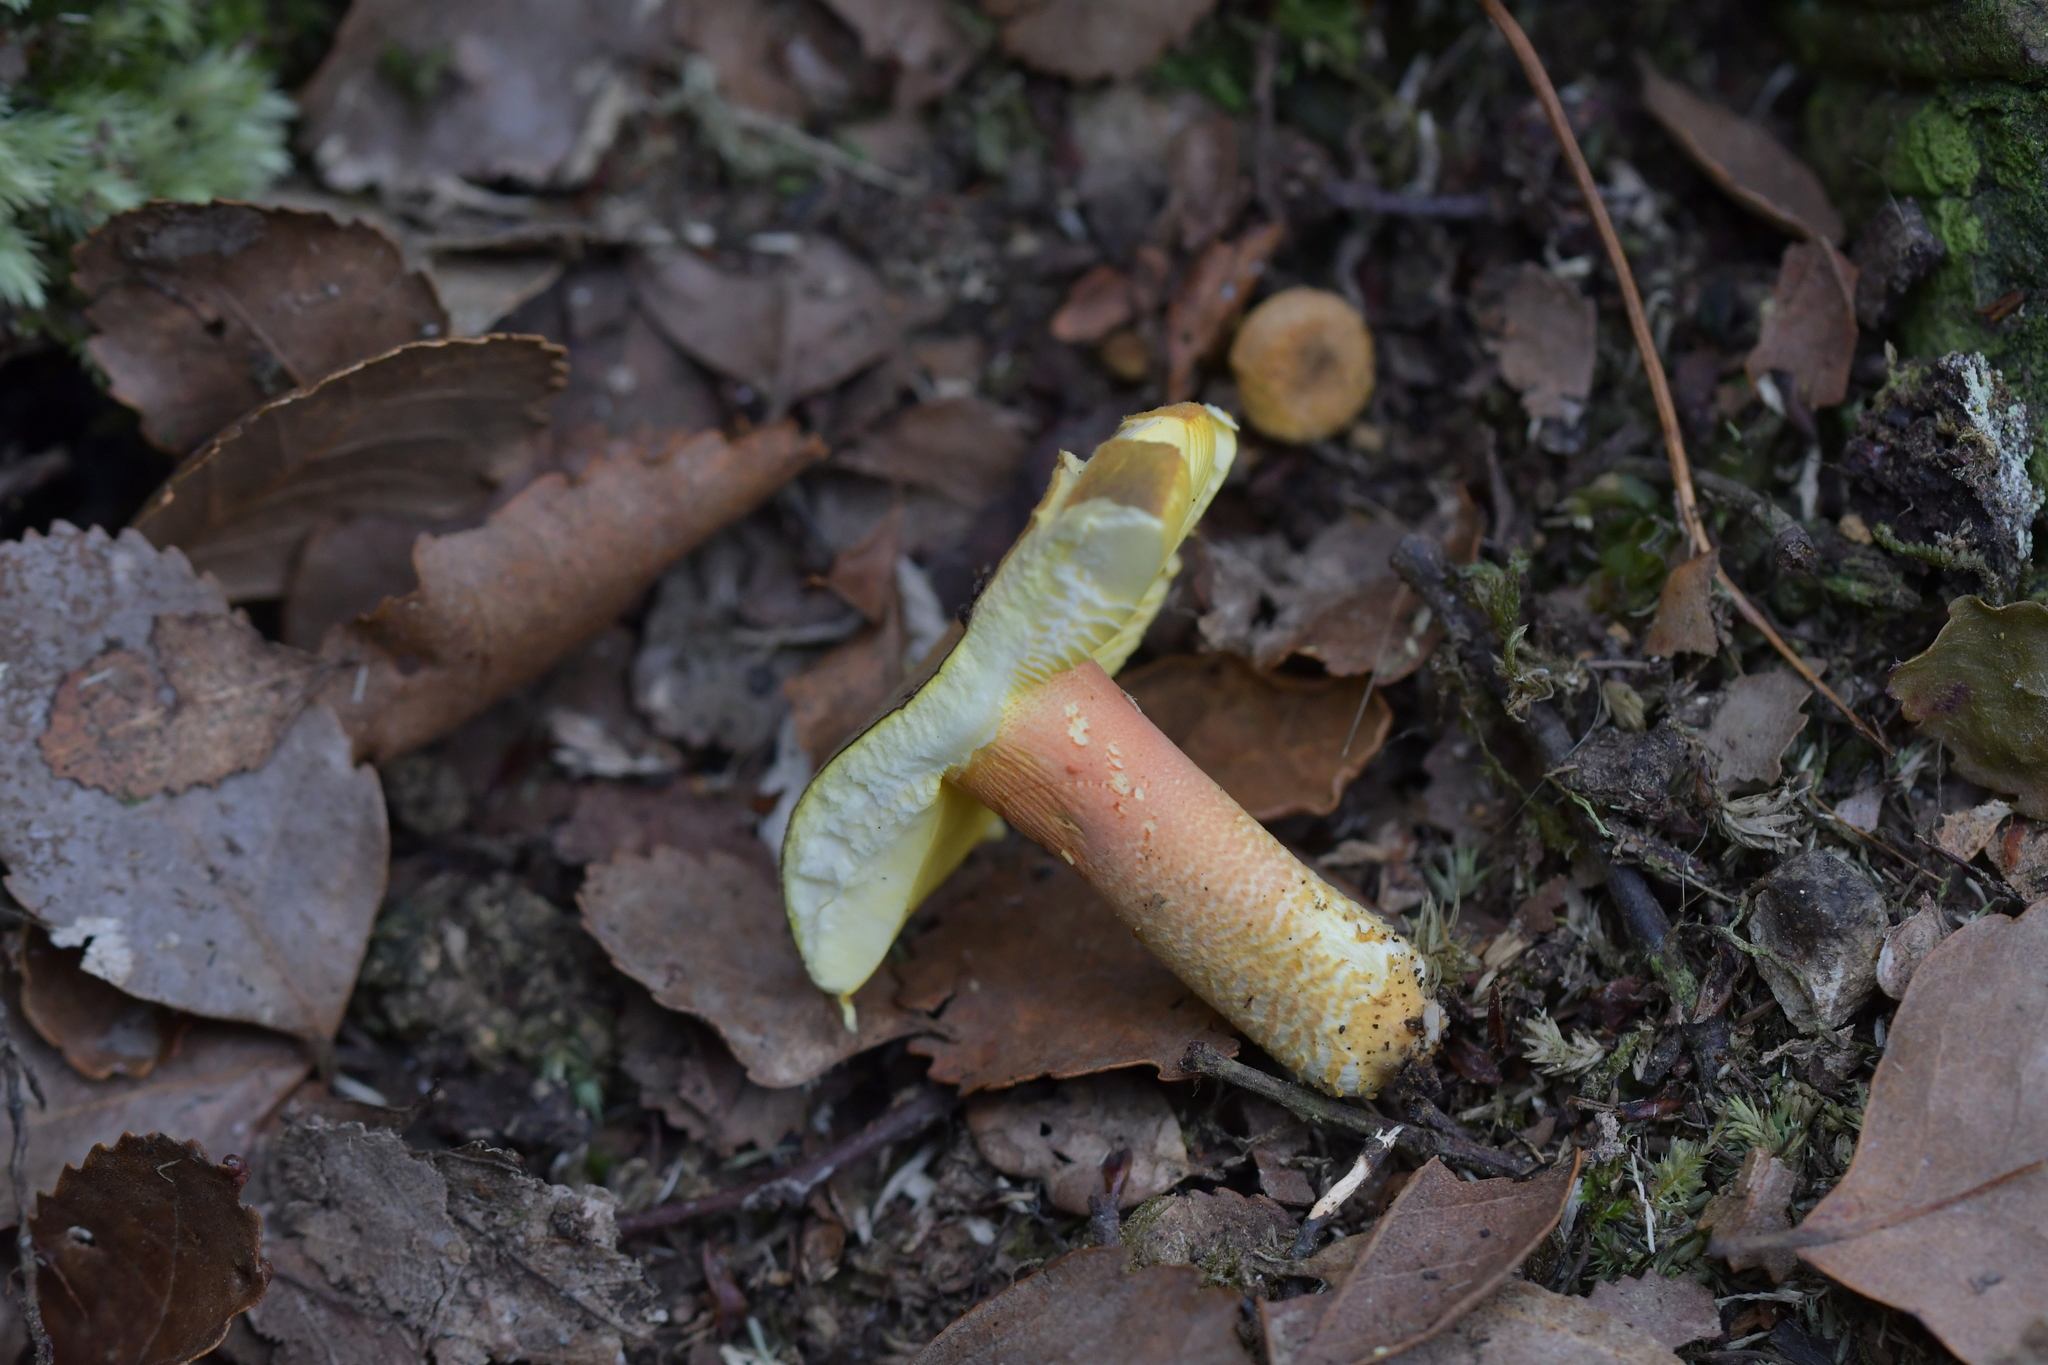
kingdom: Fungi
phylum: Basidiomycota
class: Agaricomycetes
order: Russulales
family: Russulaceae
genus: Russula
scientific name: Russula tricholomopsis
